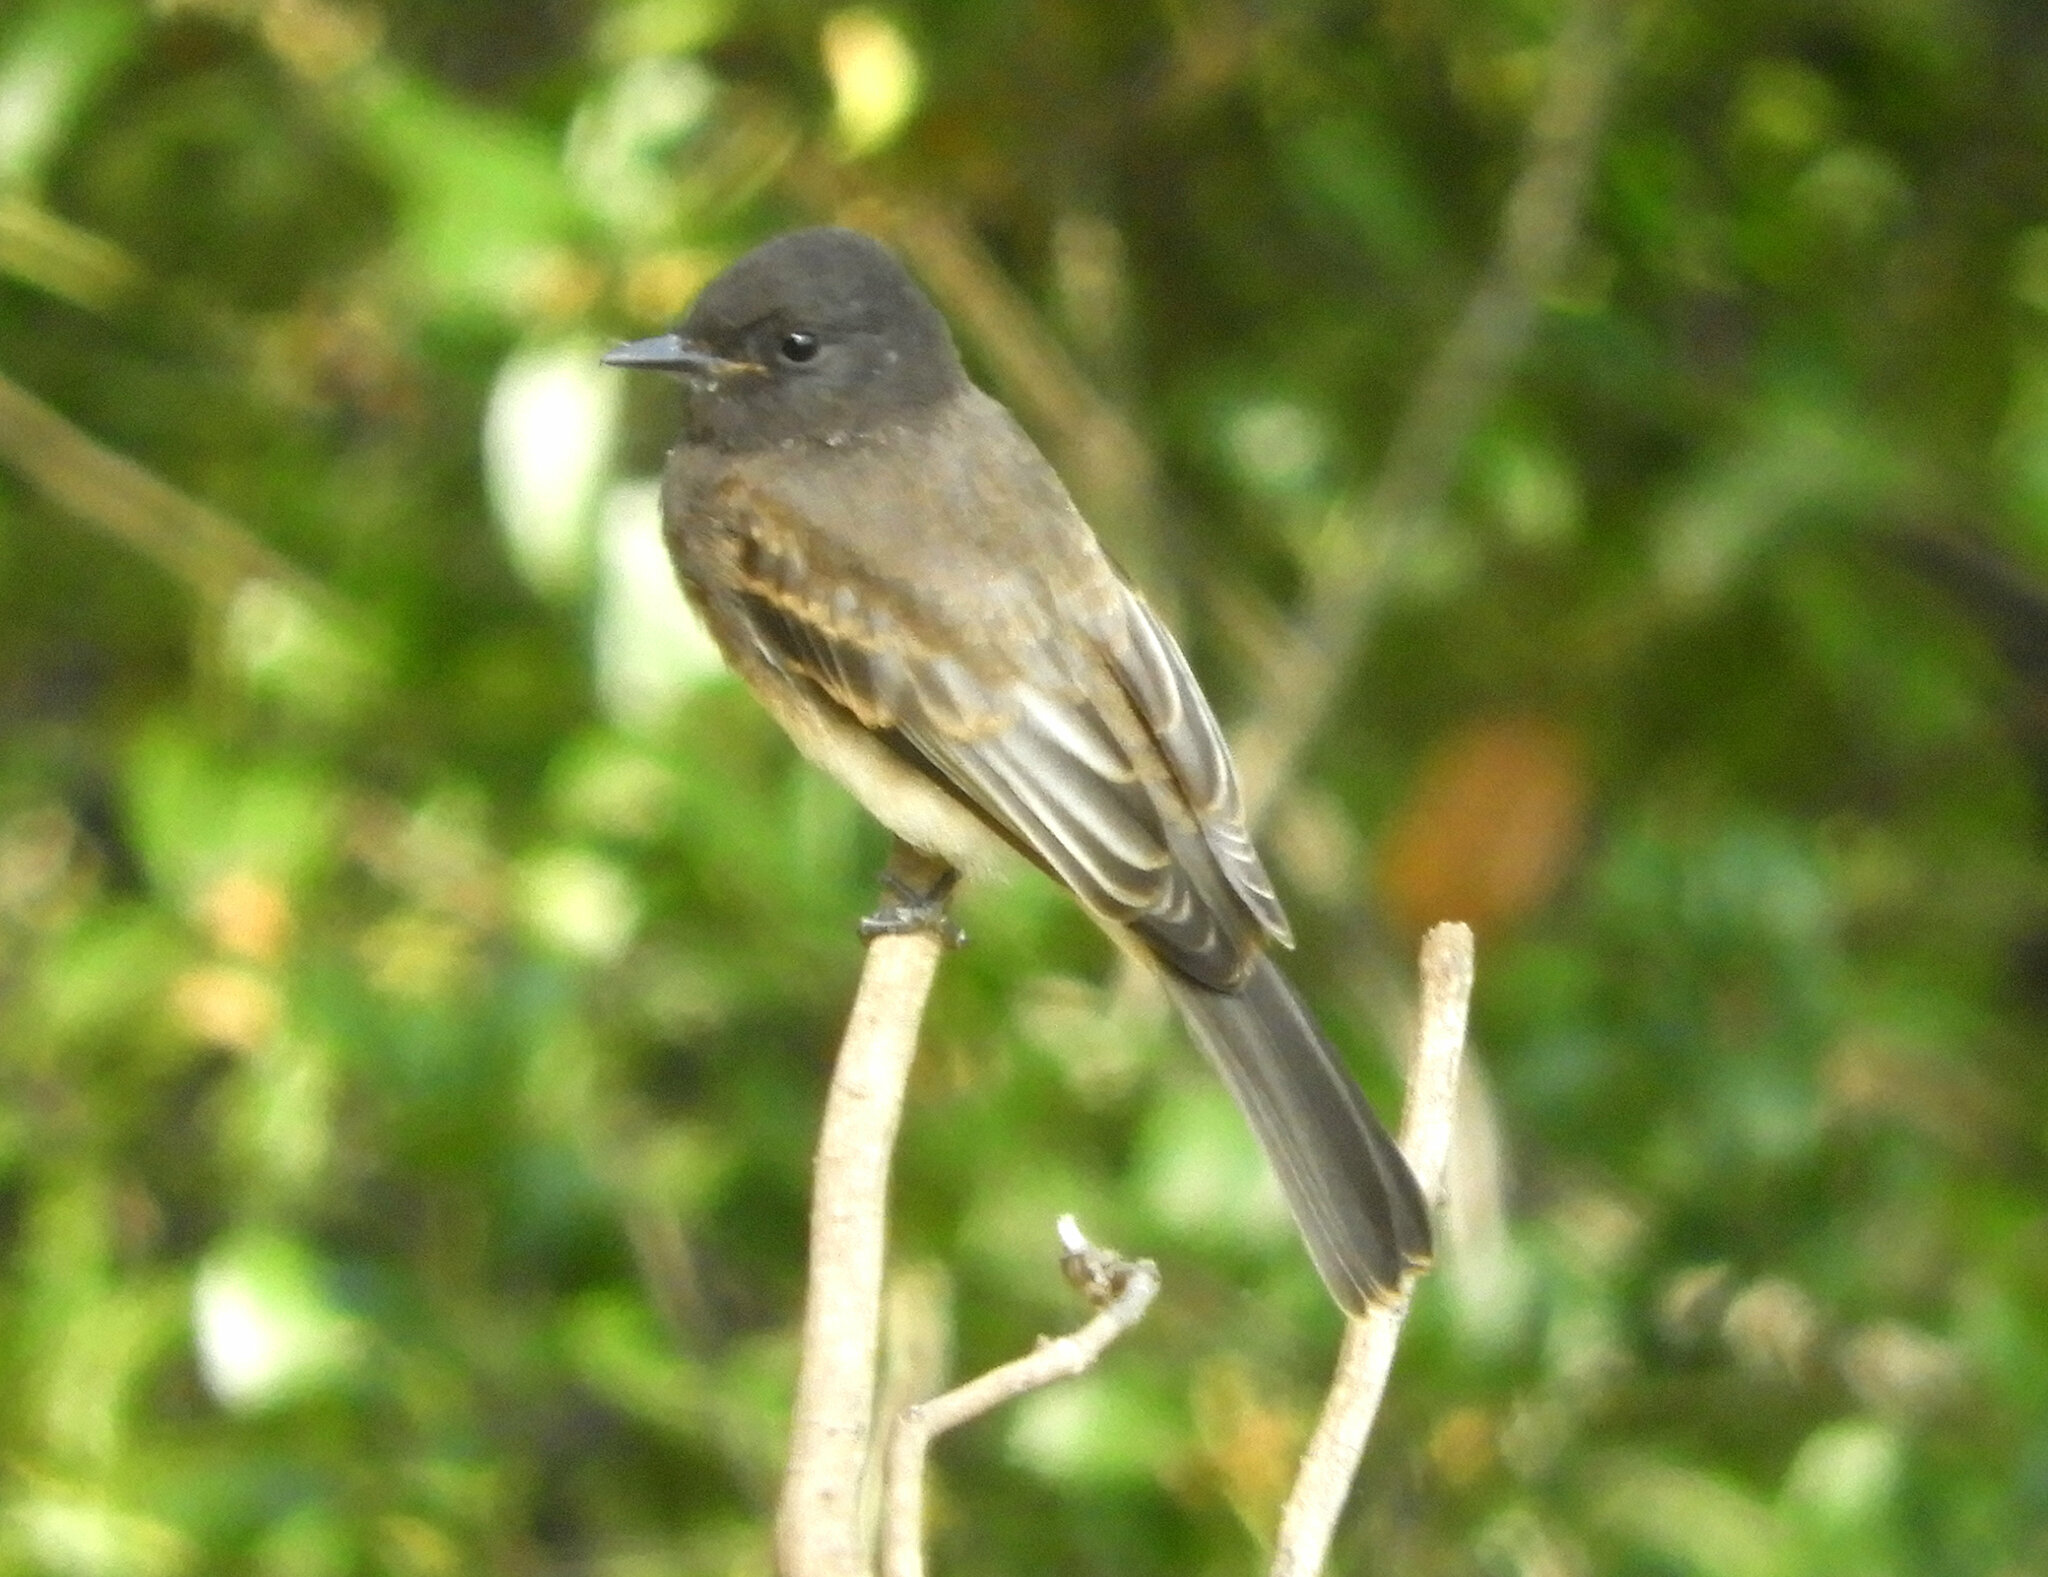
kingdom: Animalia
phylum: Chordata
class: Aves
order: Passeriformes
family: Tyrannidae
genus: Sayornis
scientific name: Sayornis nigricans
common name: Black phoebe
